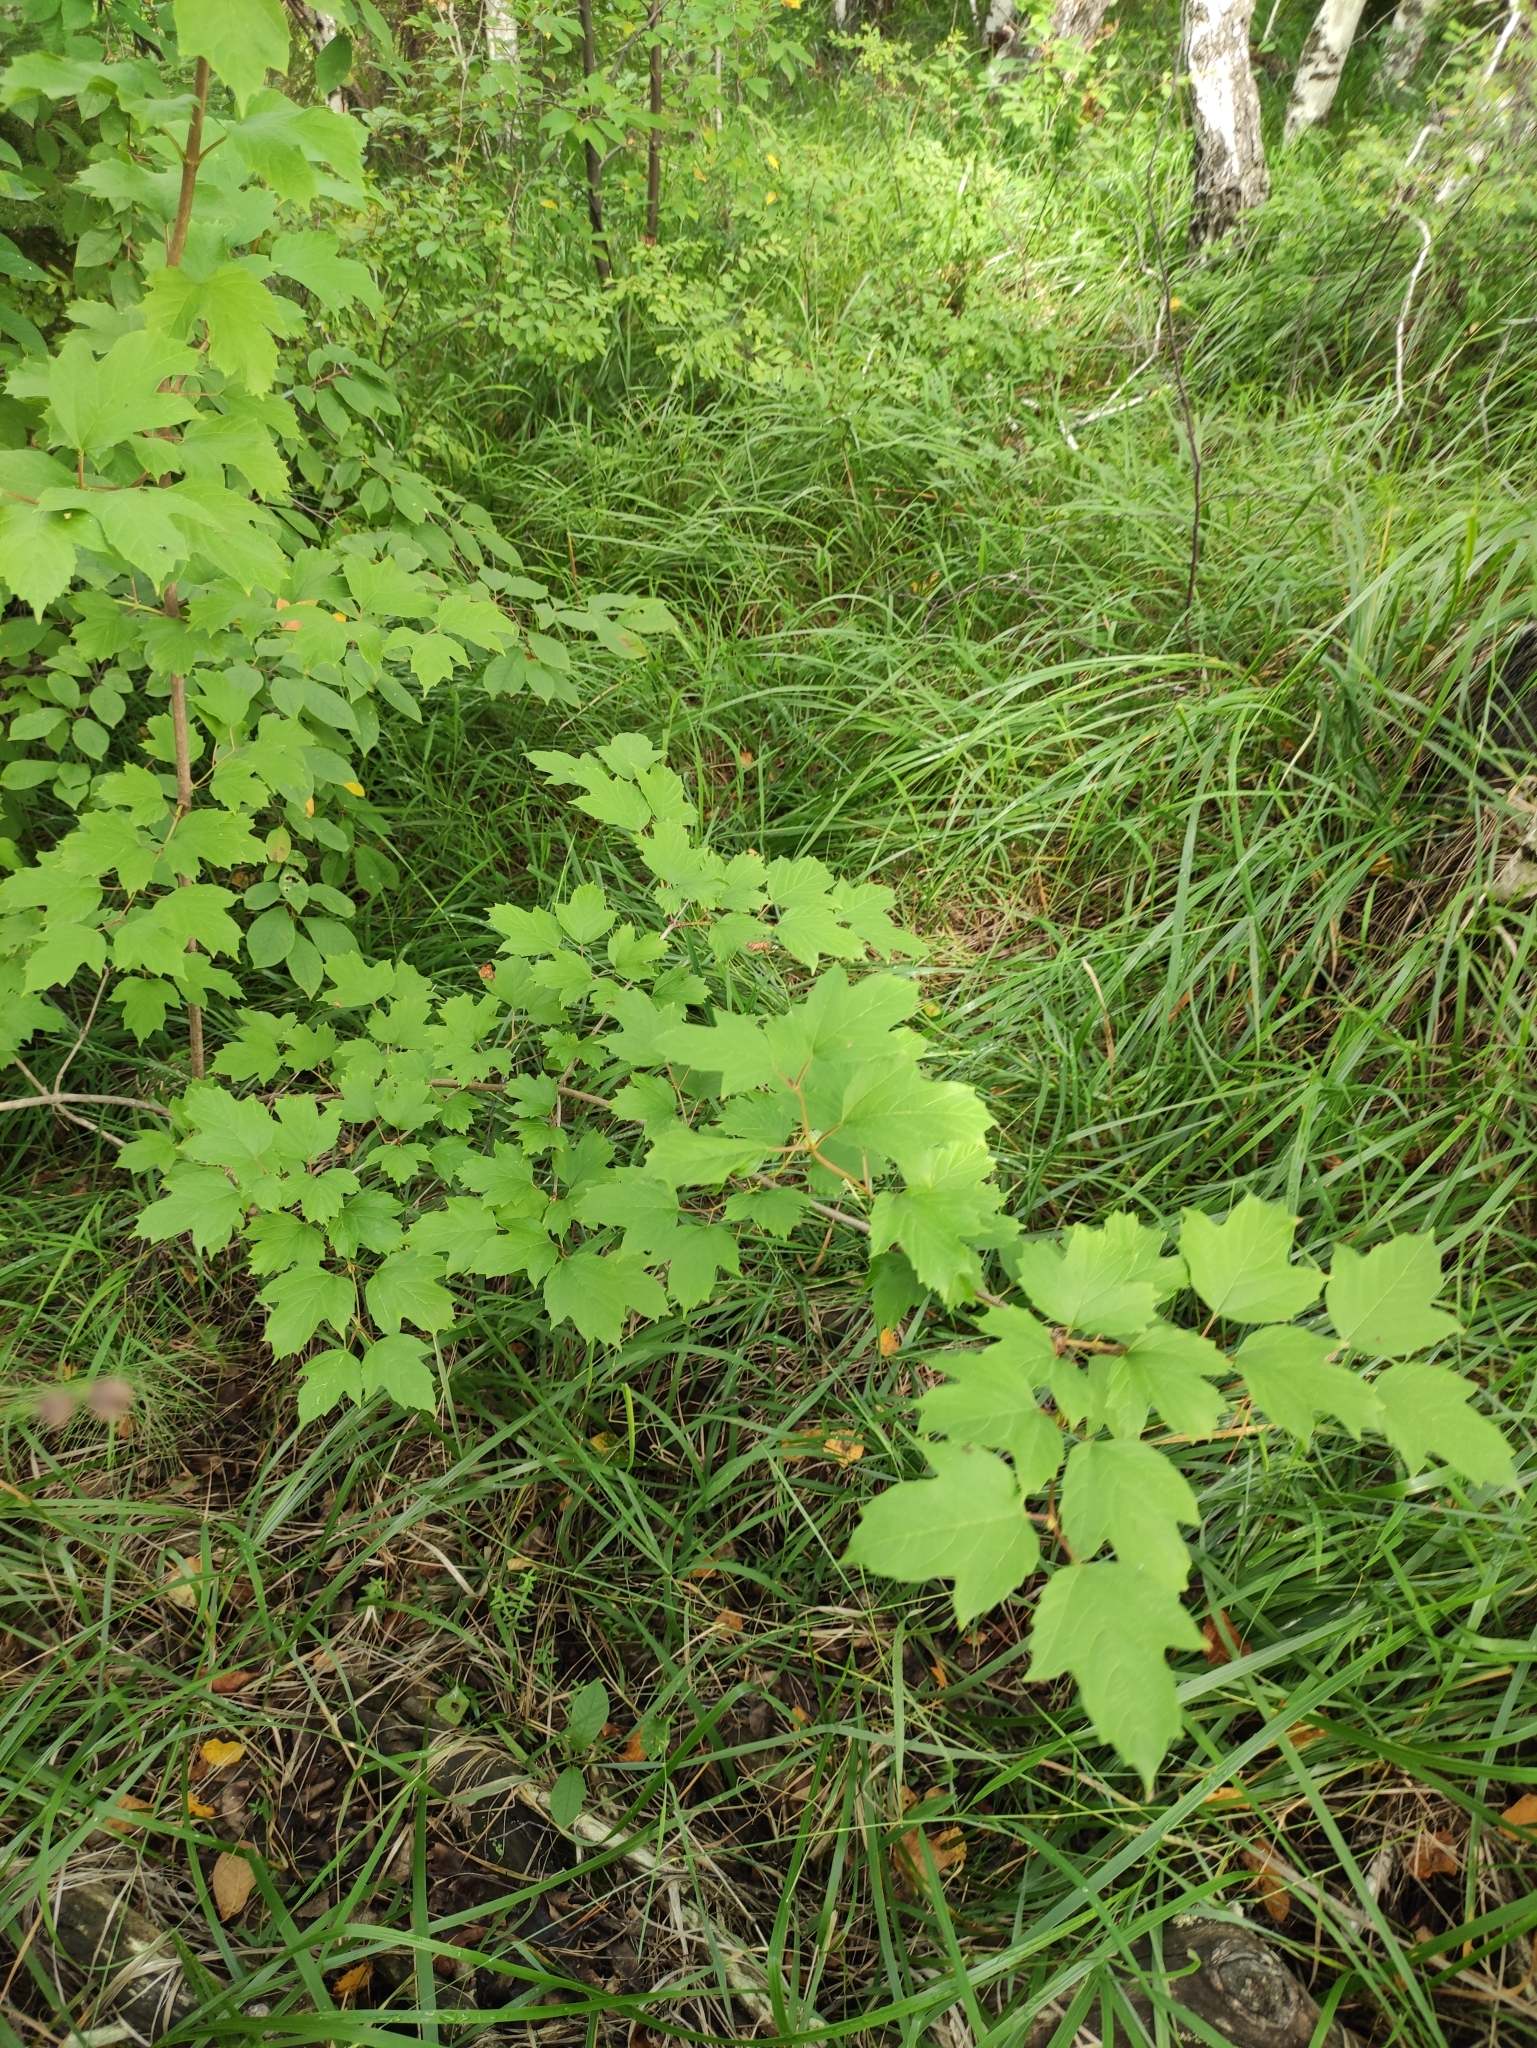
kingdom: Plantae
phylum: Tracheophyta
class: Magnoliopsida
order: Dipsacales
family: Viburnaceae
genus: Viburnum
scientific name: Viburnum opulus
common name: Guelder-rose
